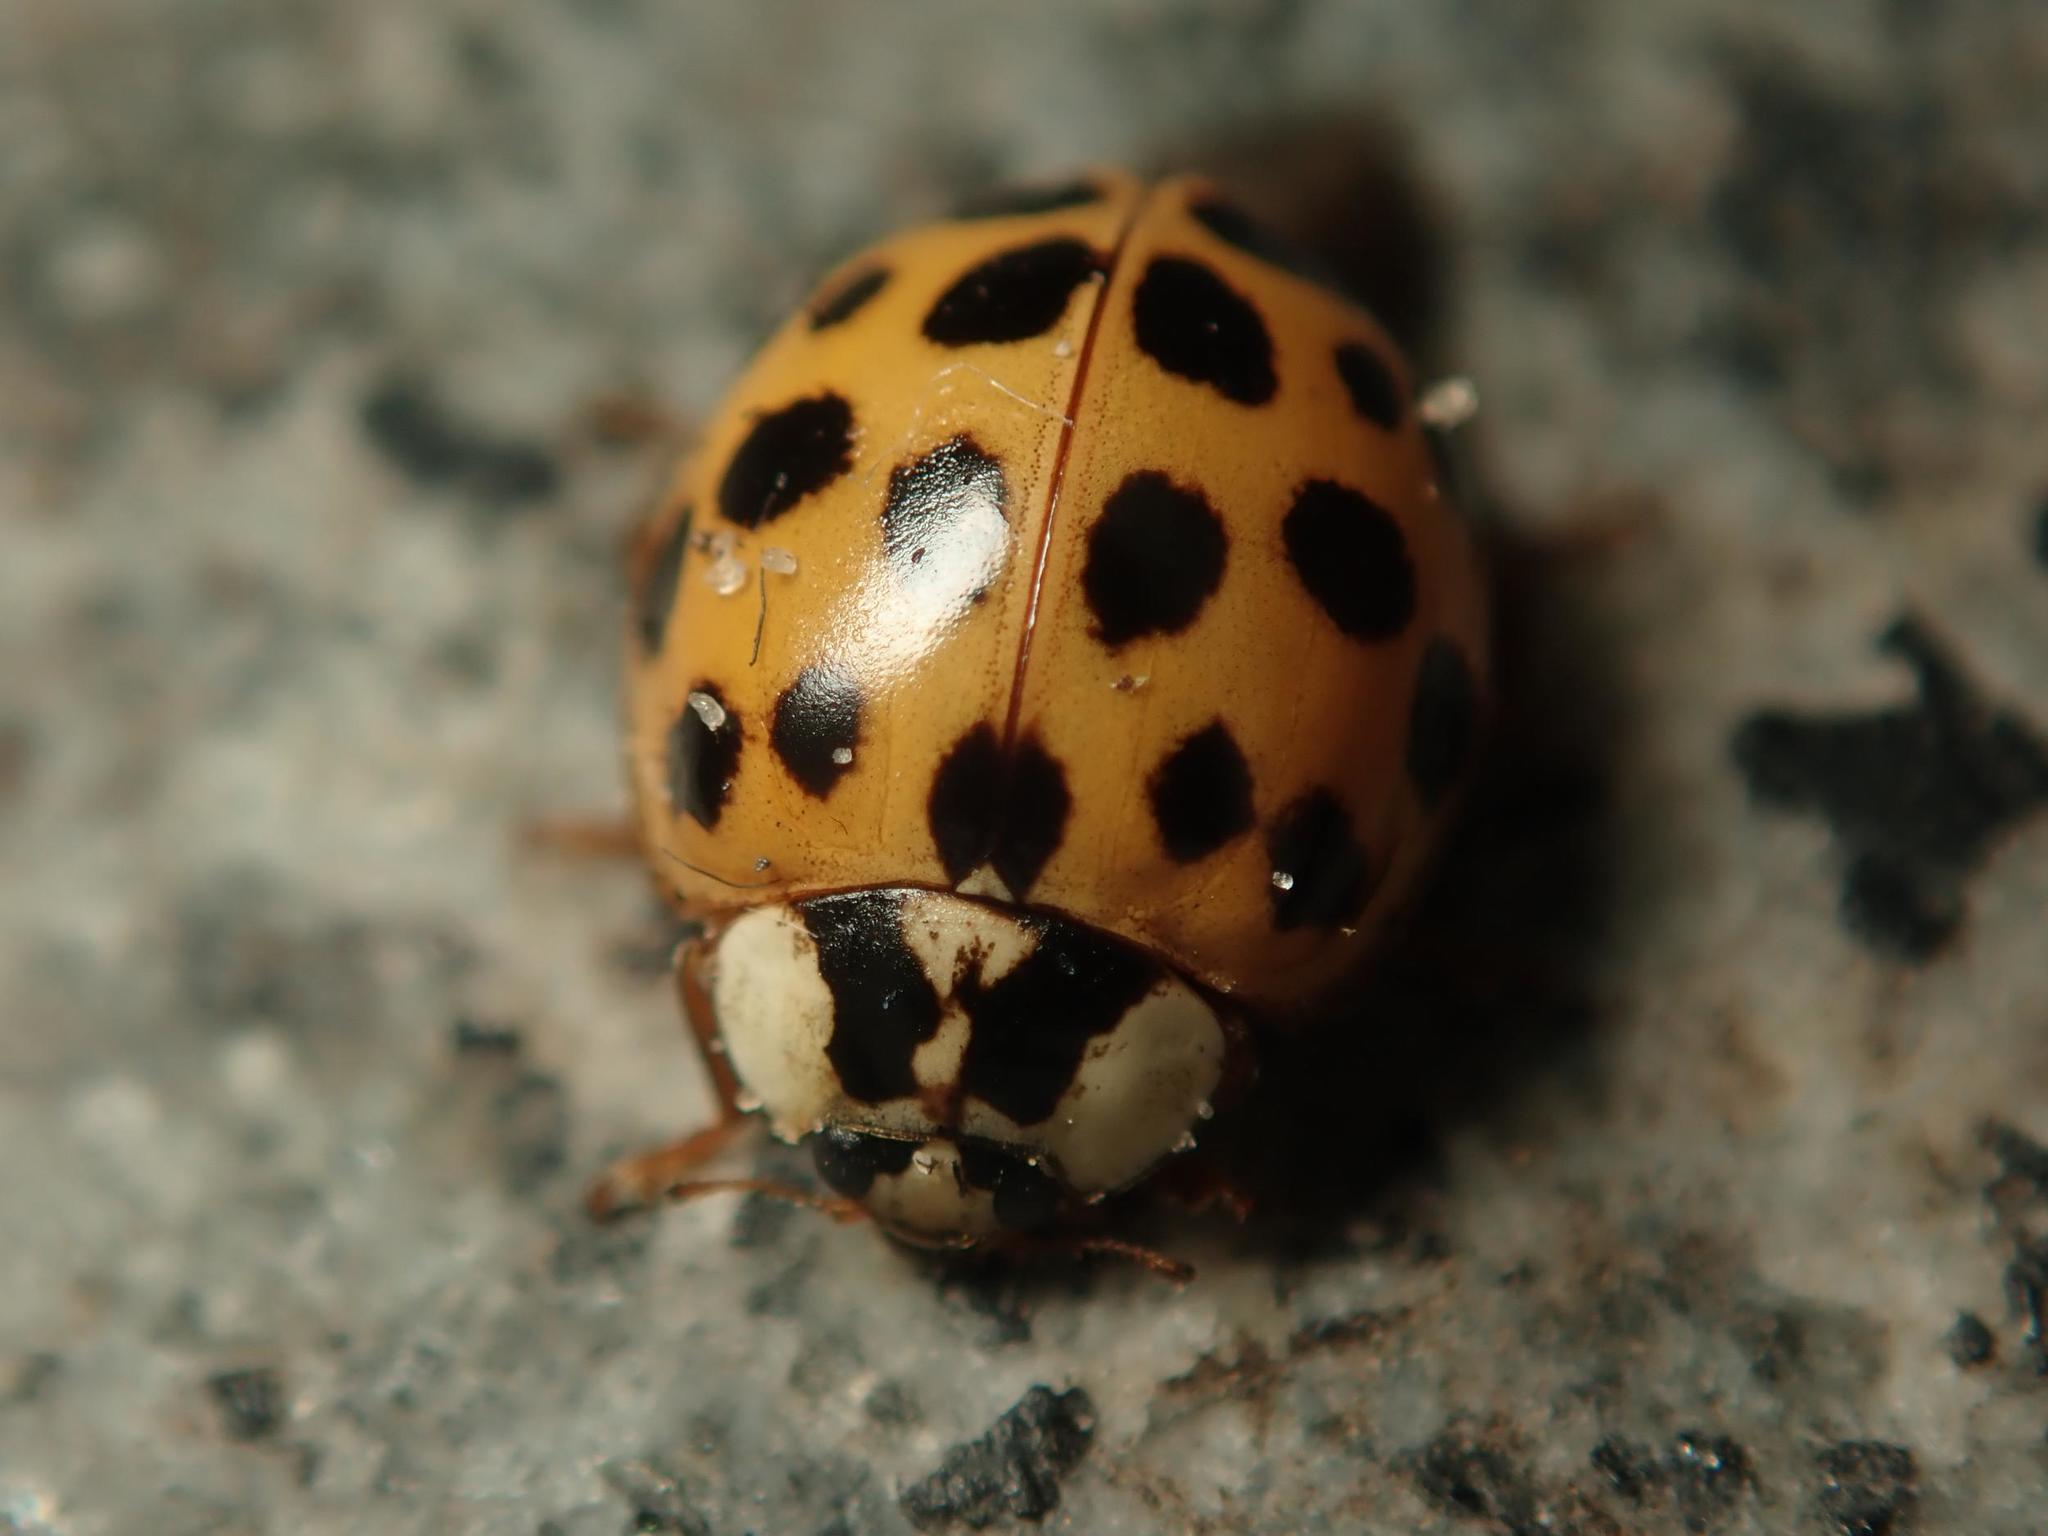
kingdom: Animalia
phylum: Arthropoda
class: Insecta
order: Coleoptera
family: Coccinellidae
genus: Harmonia
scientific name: Harmonia axyridis
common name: Harlequin ladybird
